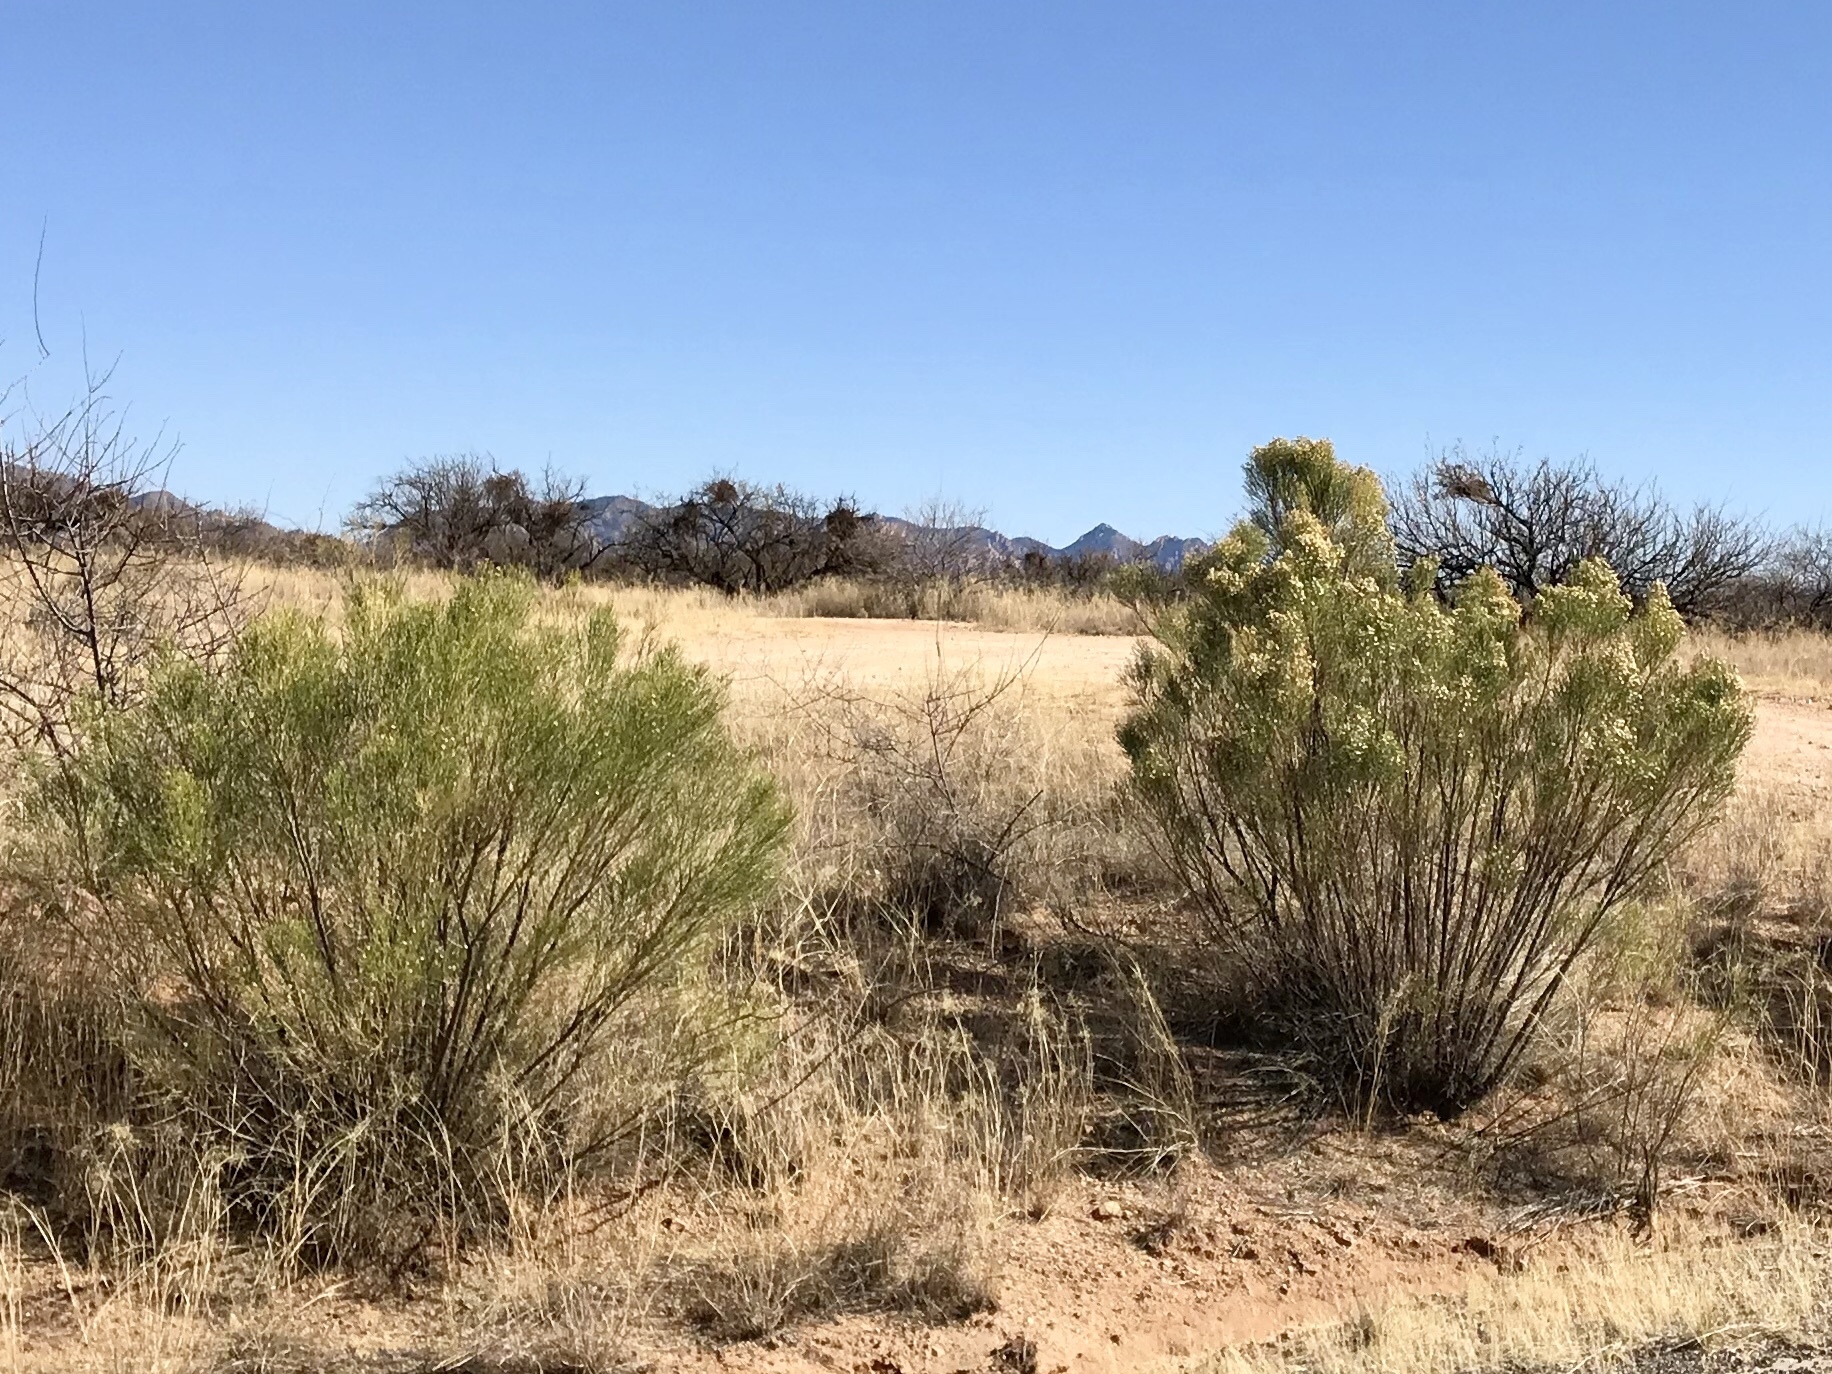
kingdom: Plantae
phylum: Tracheophyta
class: Magnoliopsida
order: Asterales
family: Asteraceae
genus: Baccharis
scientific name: Baccharis sarothroides
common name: Desert-broom
